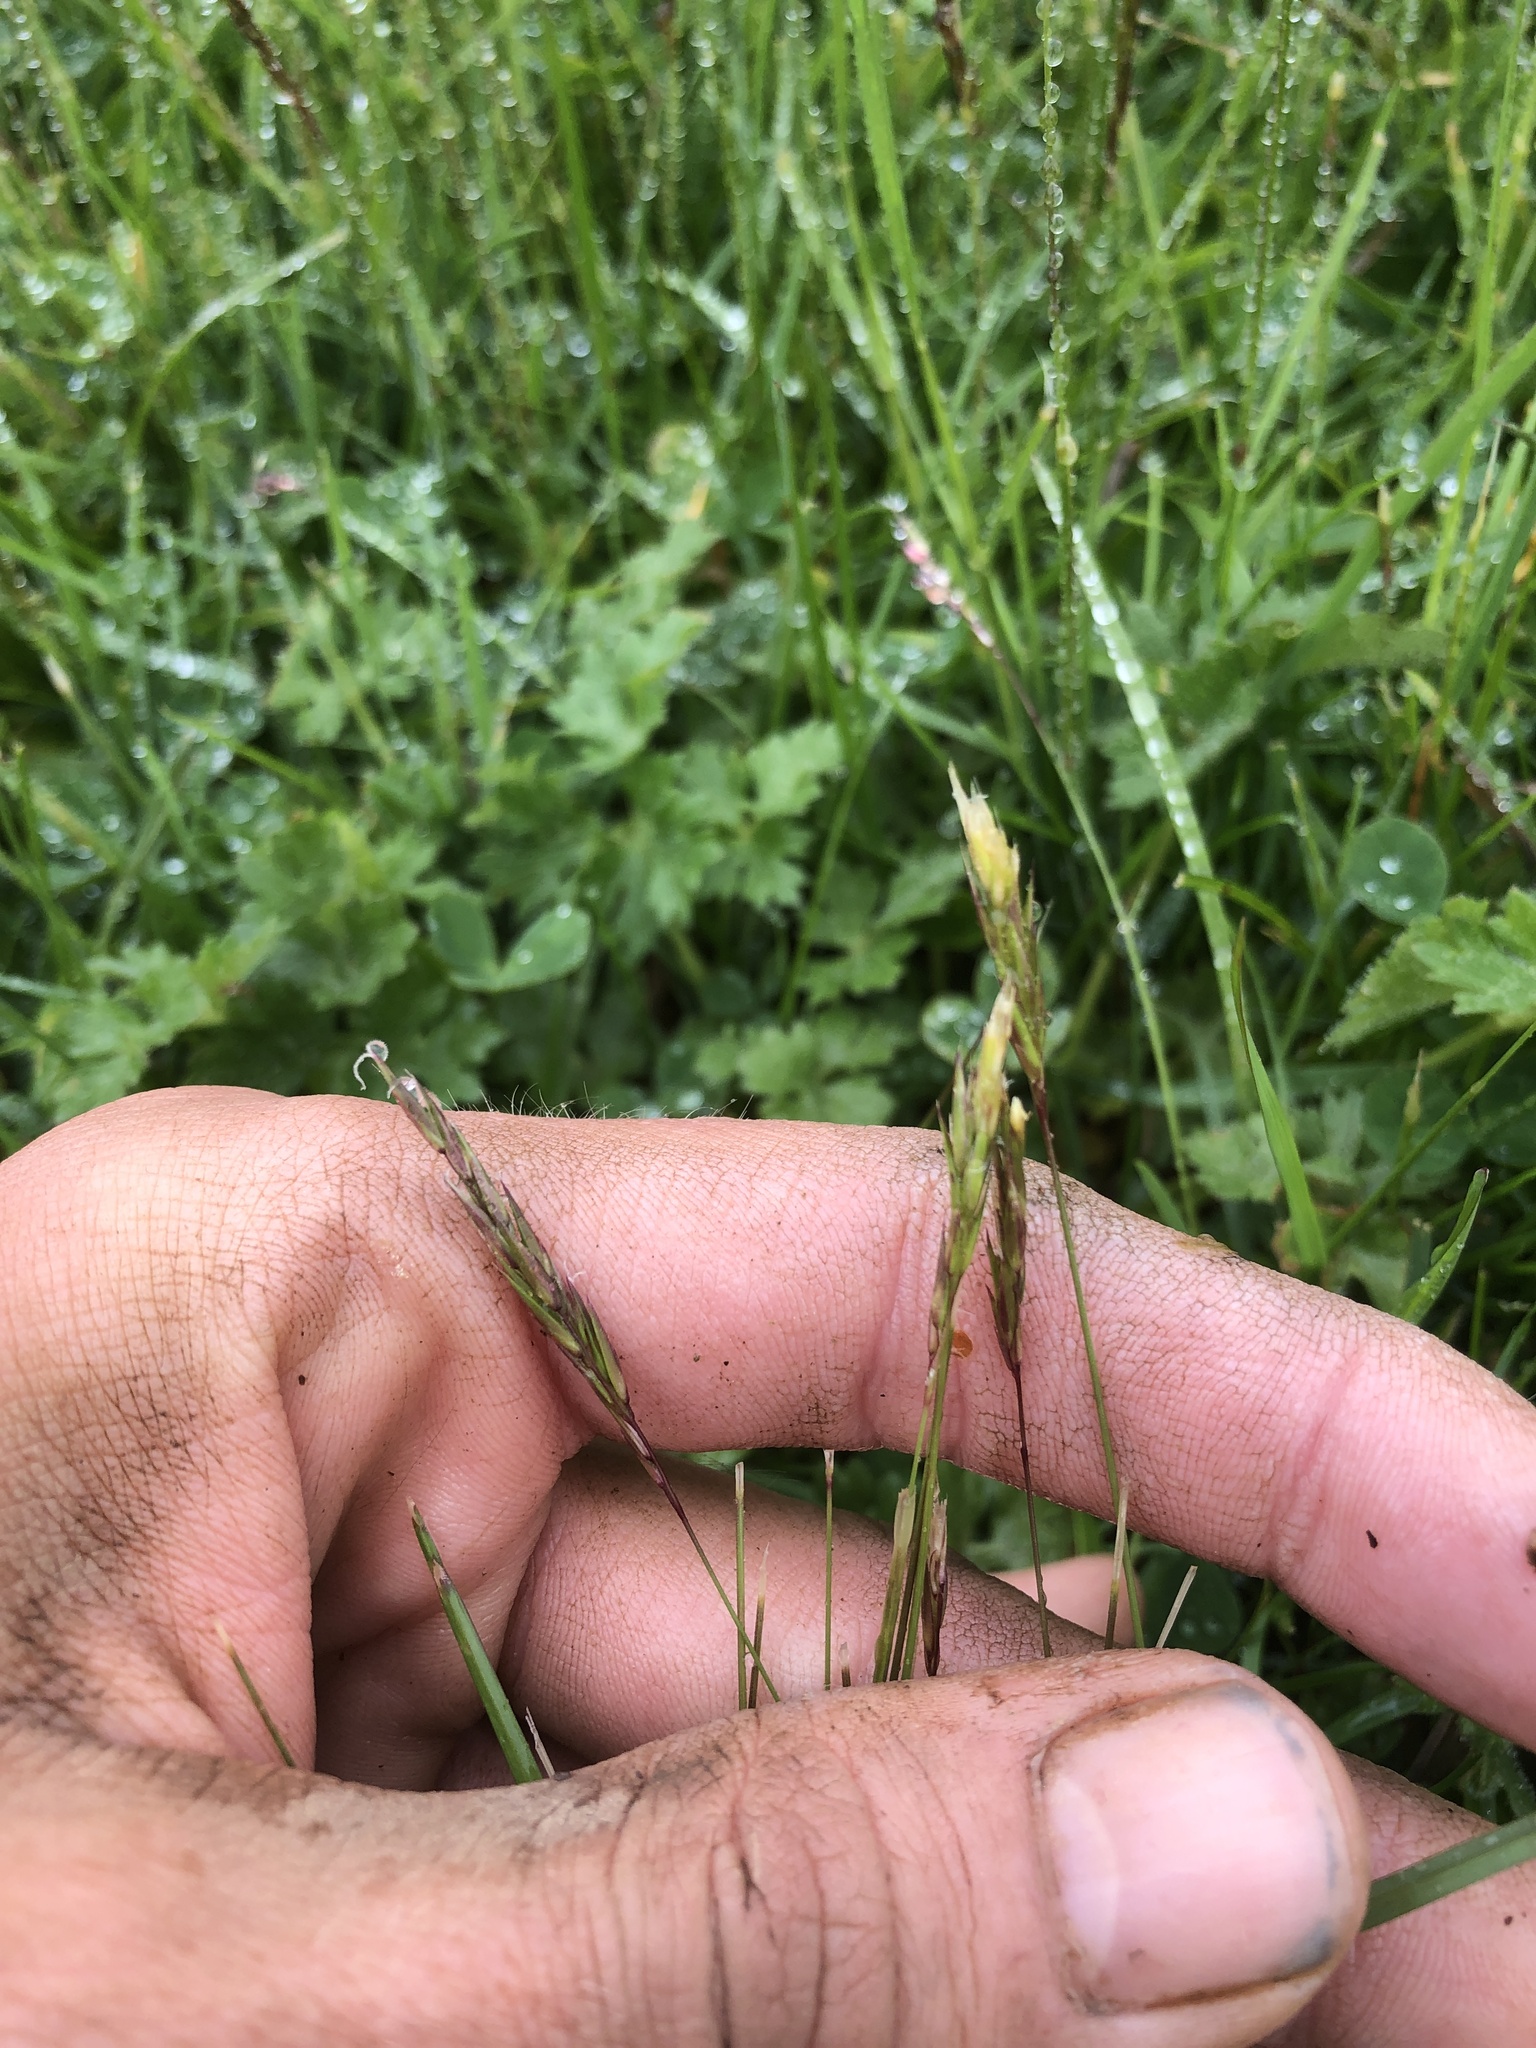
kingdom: Plantae
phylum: Tracheophyta
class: Liliopsida
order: Poales
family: Poaceae
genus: Anthoxanthum
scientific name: Anthoxanthum odoratum
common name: Sweet vernalgrass
